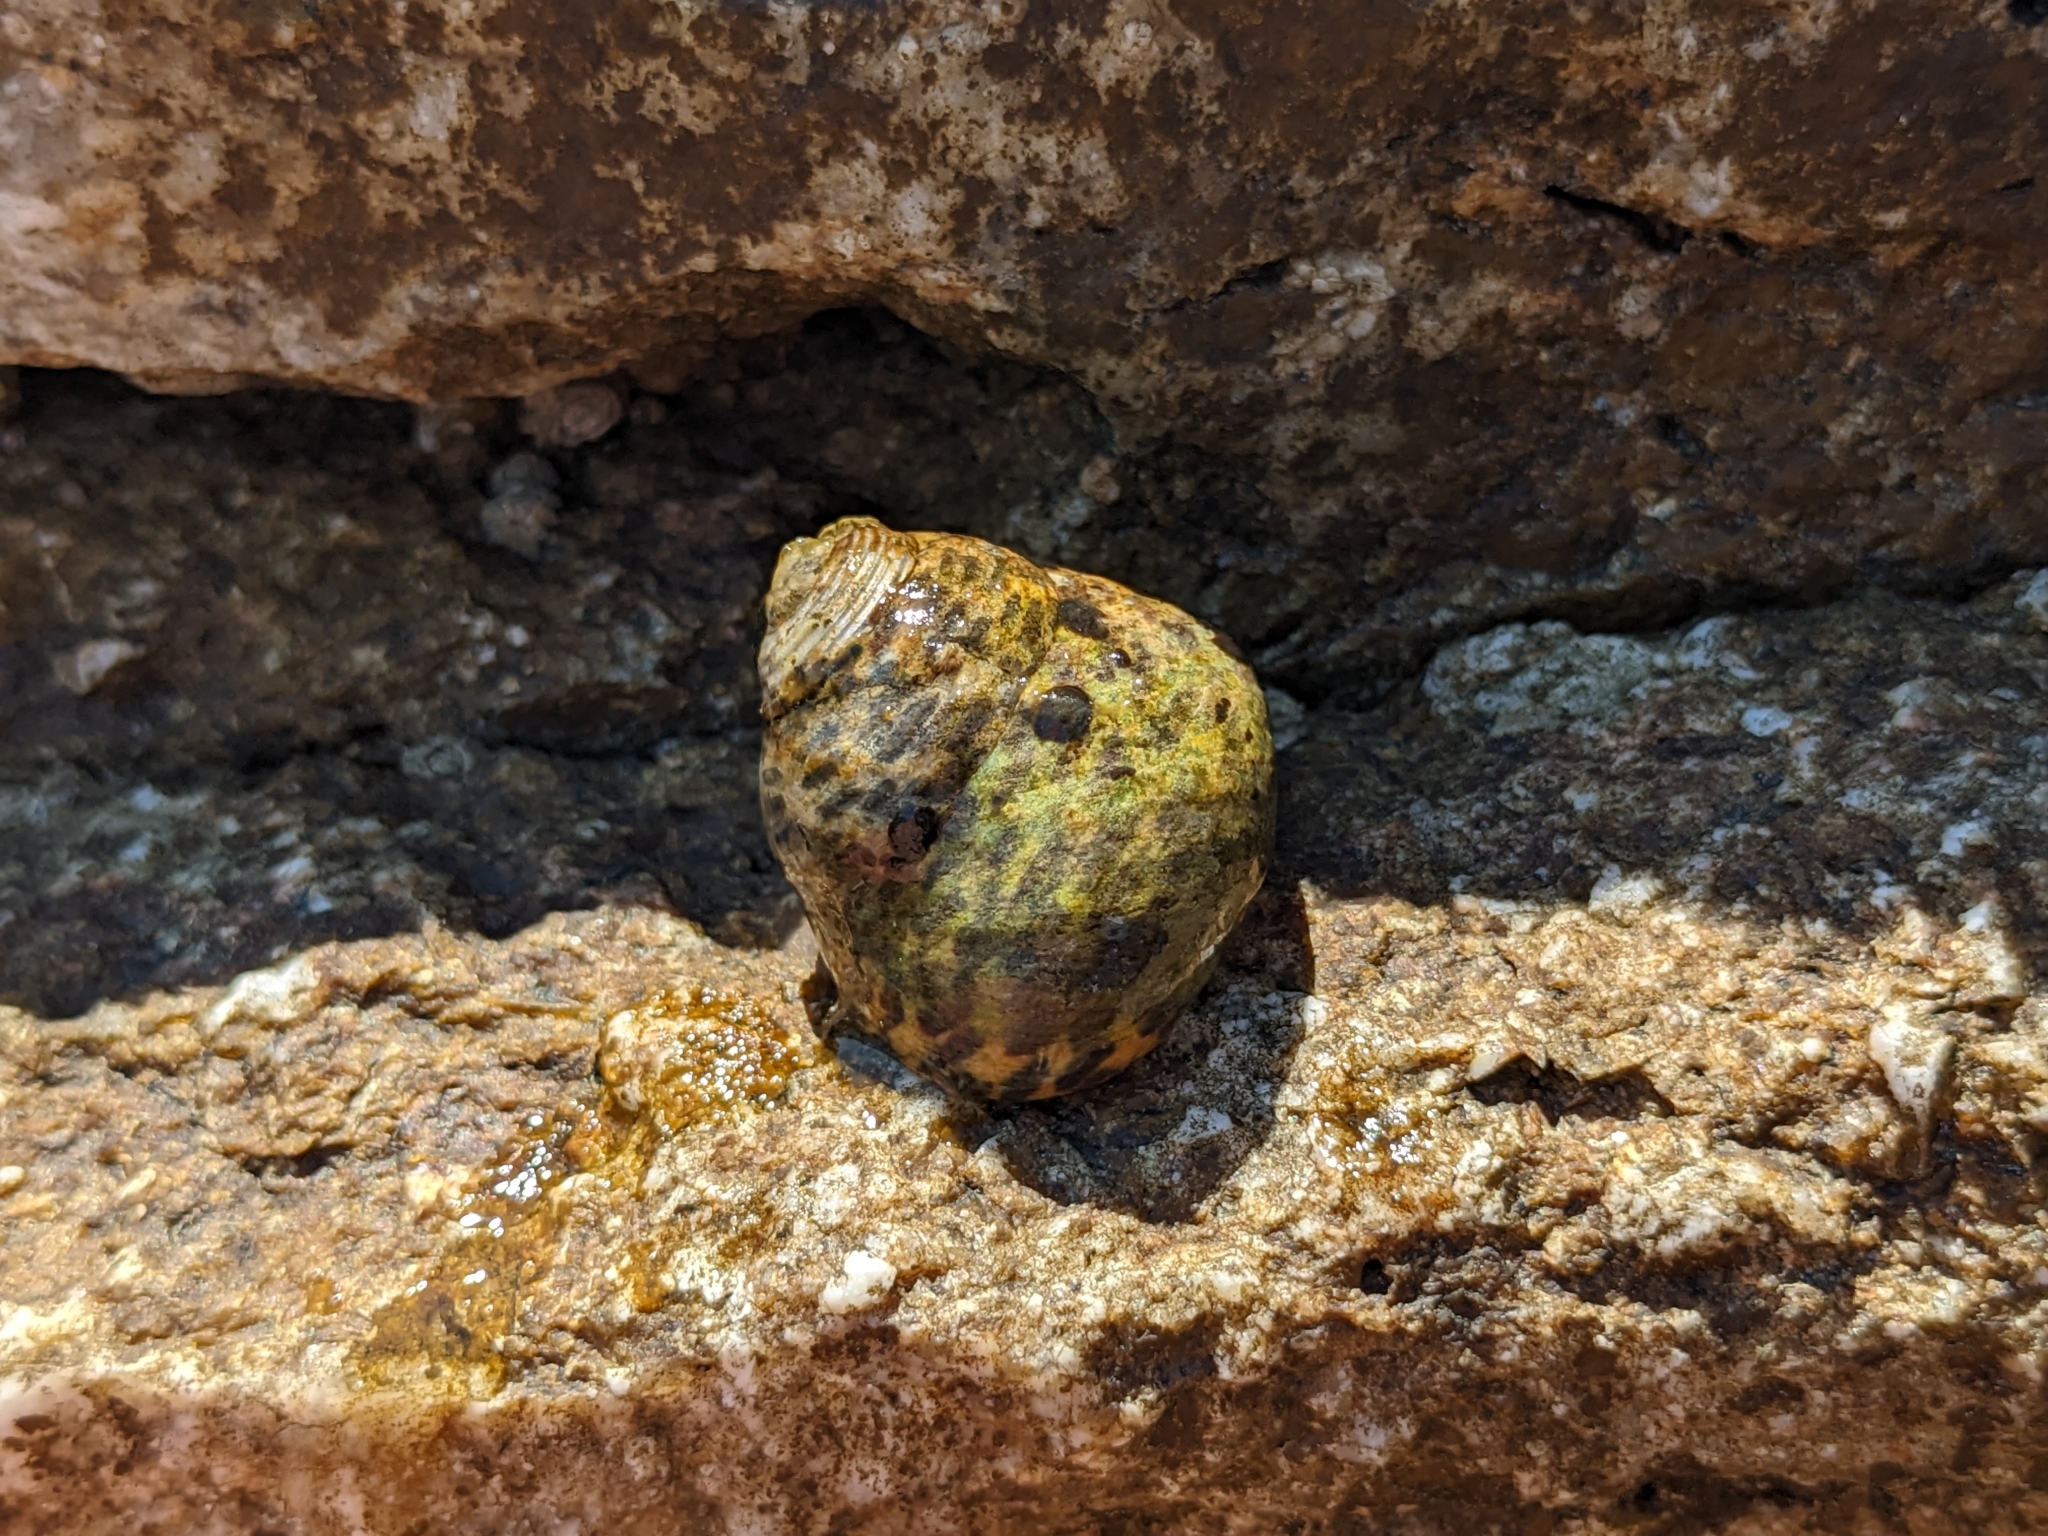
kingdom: Animalia
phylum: Mollusca
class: Gastropoda
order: Trochida
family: Trochidae
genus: Phorcus
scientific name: Phorcus turbinatus
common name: Turbinate monodont
